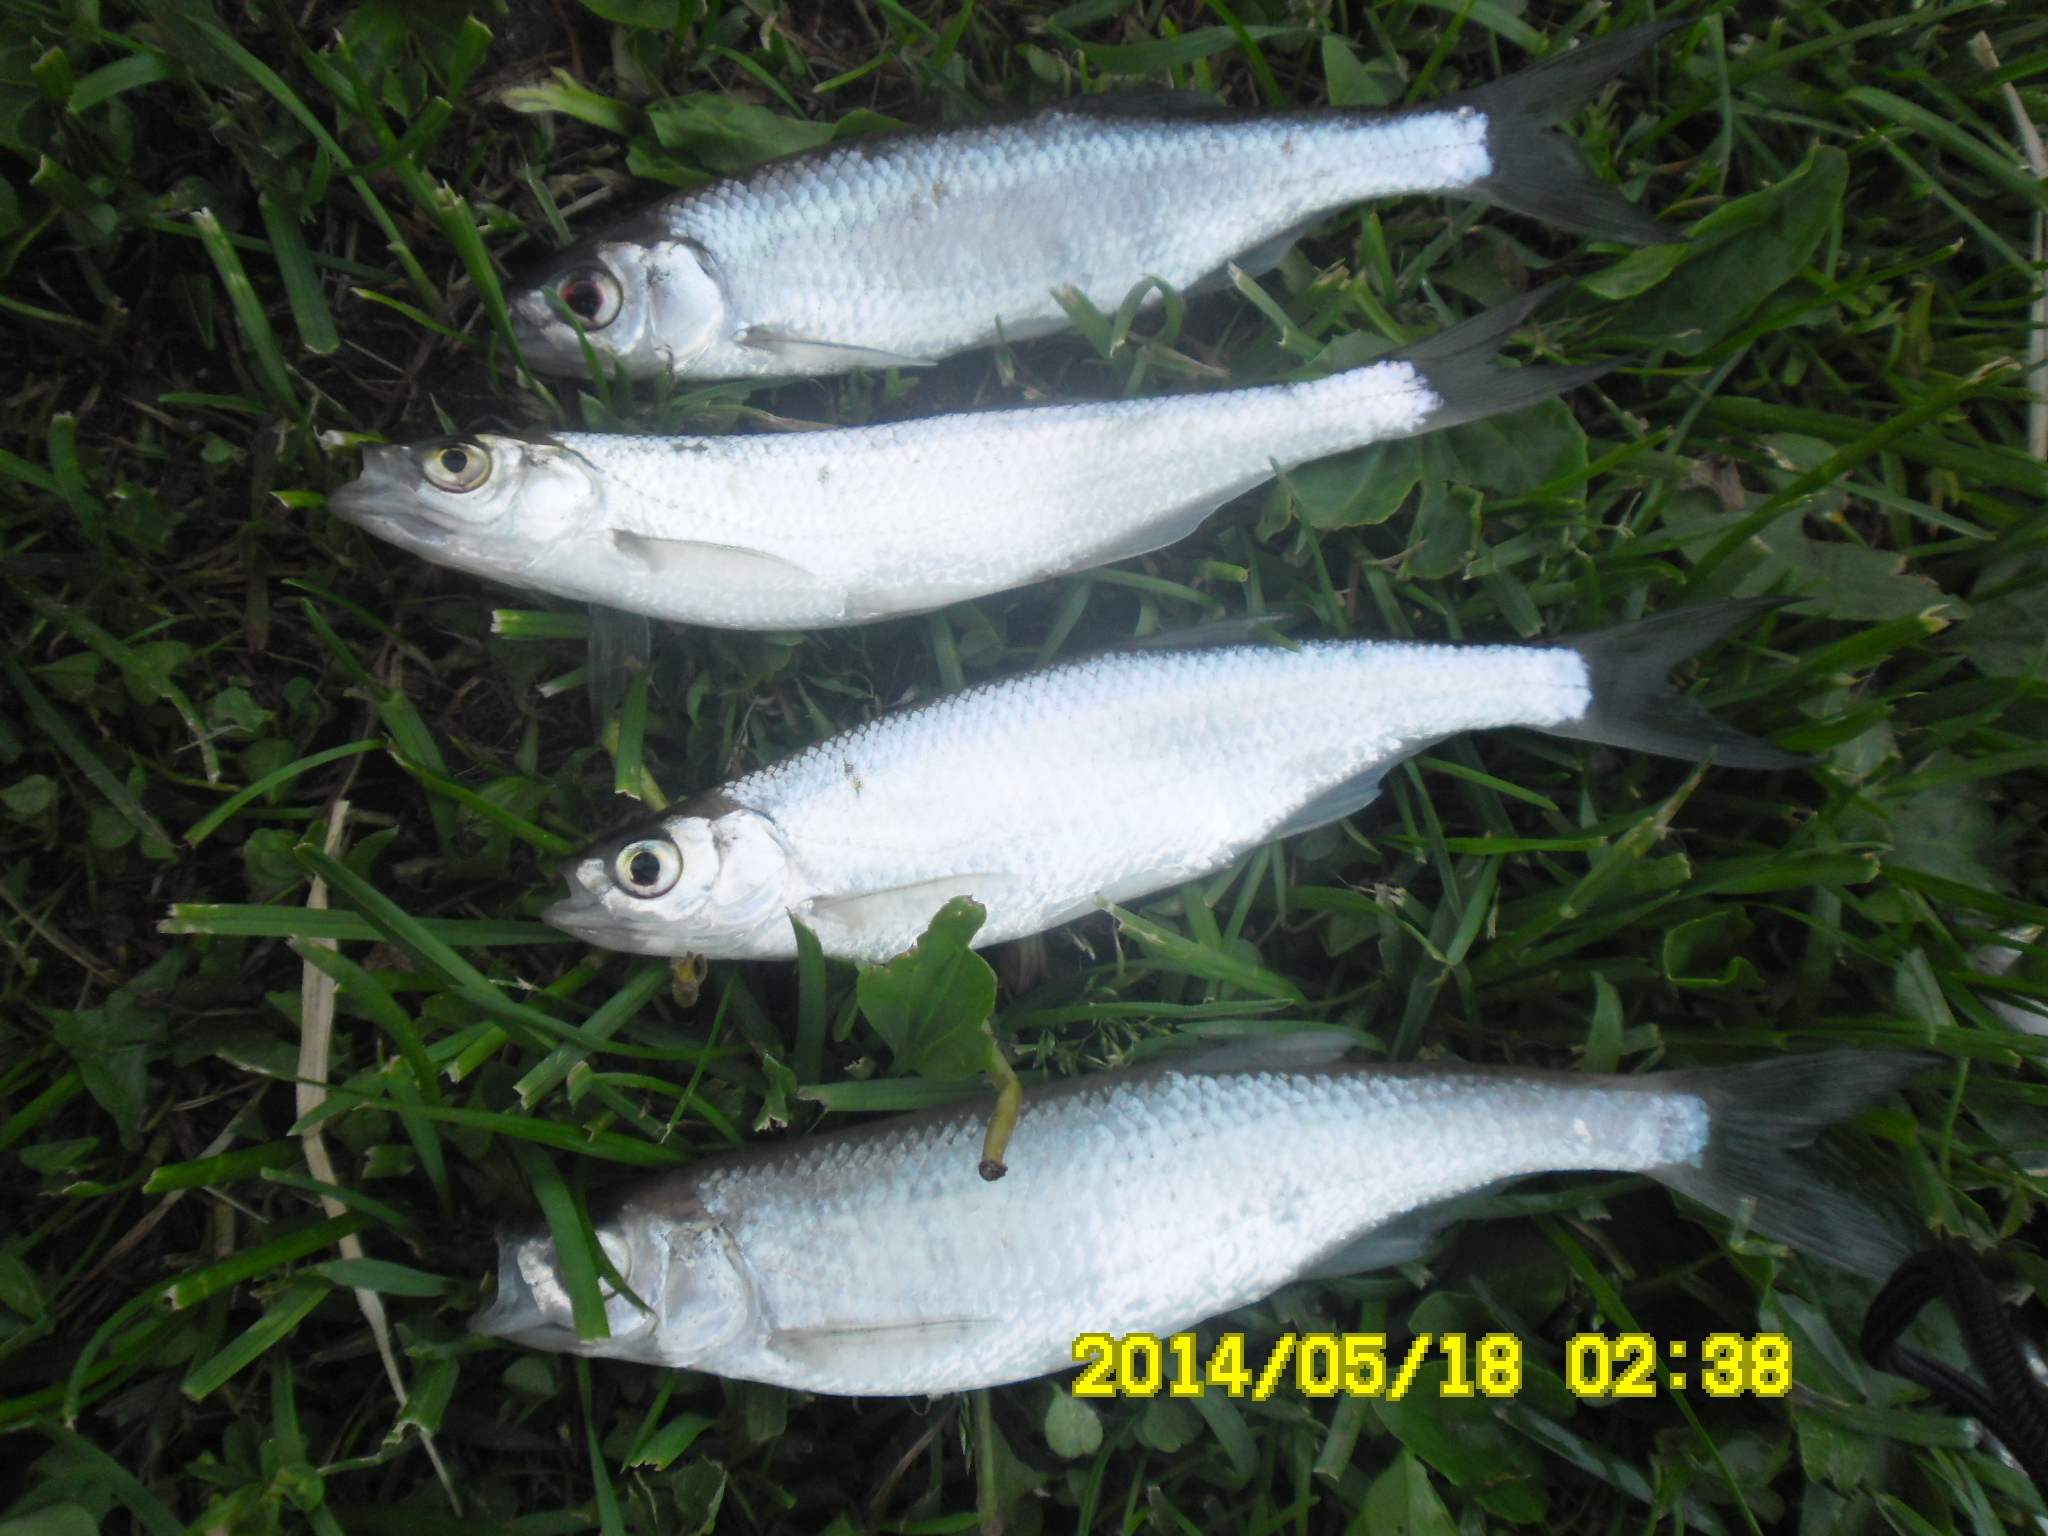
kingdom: Animalia
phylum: Chordata
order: Cypriniformes
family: Cyprinidae
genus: Leucaspius
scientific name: Leucaspius delineatus
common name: Sunbleak
